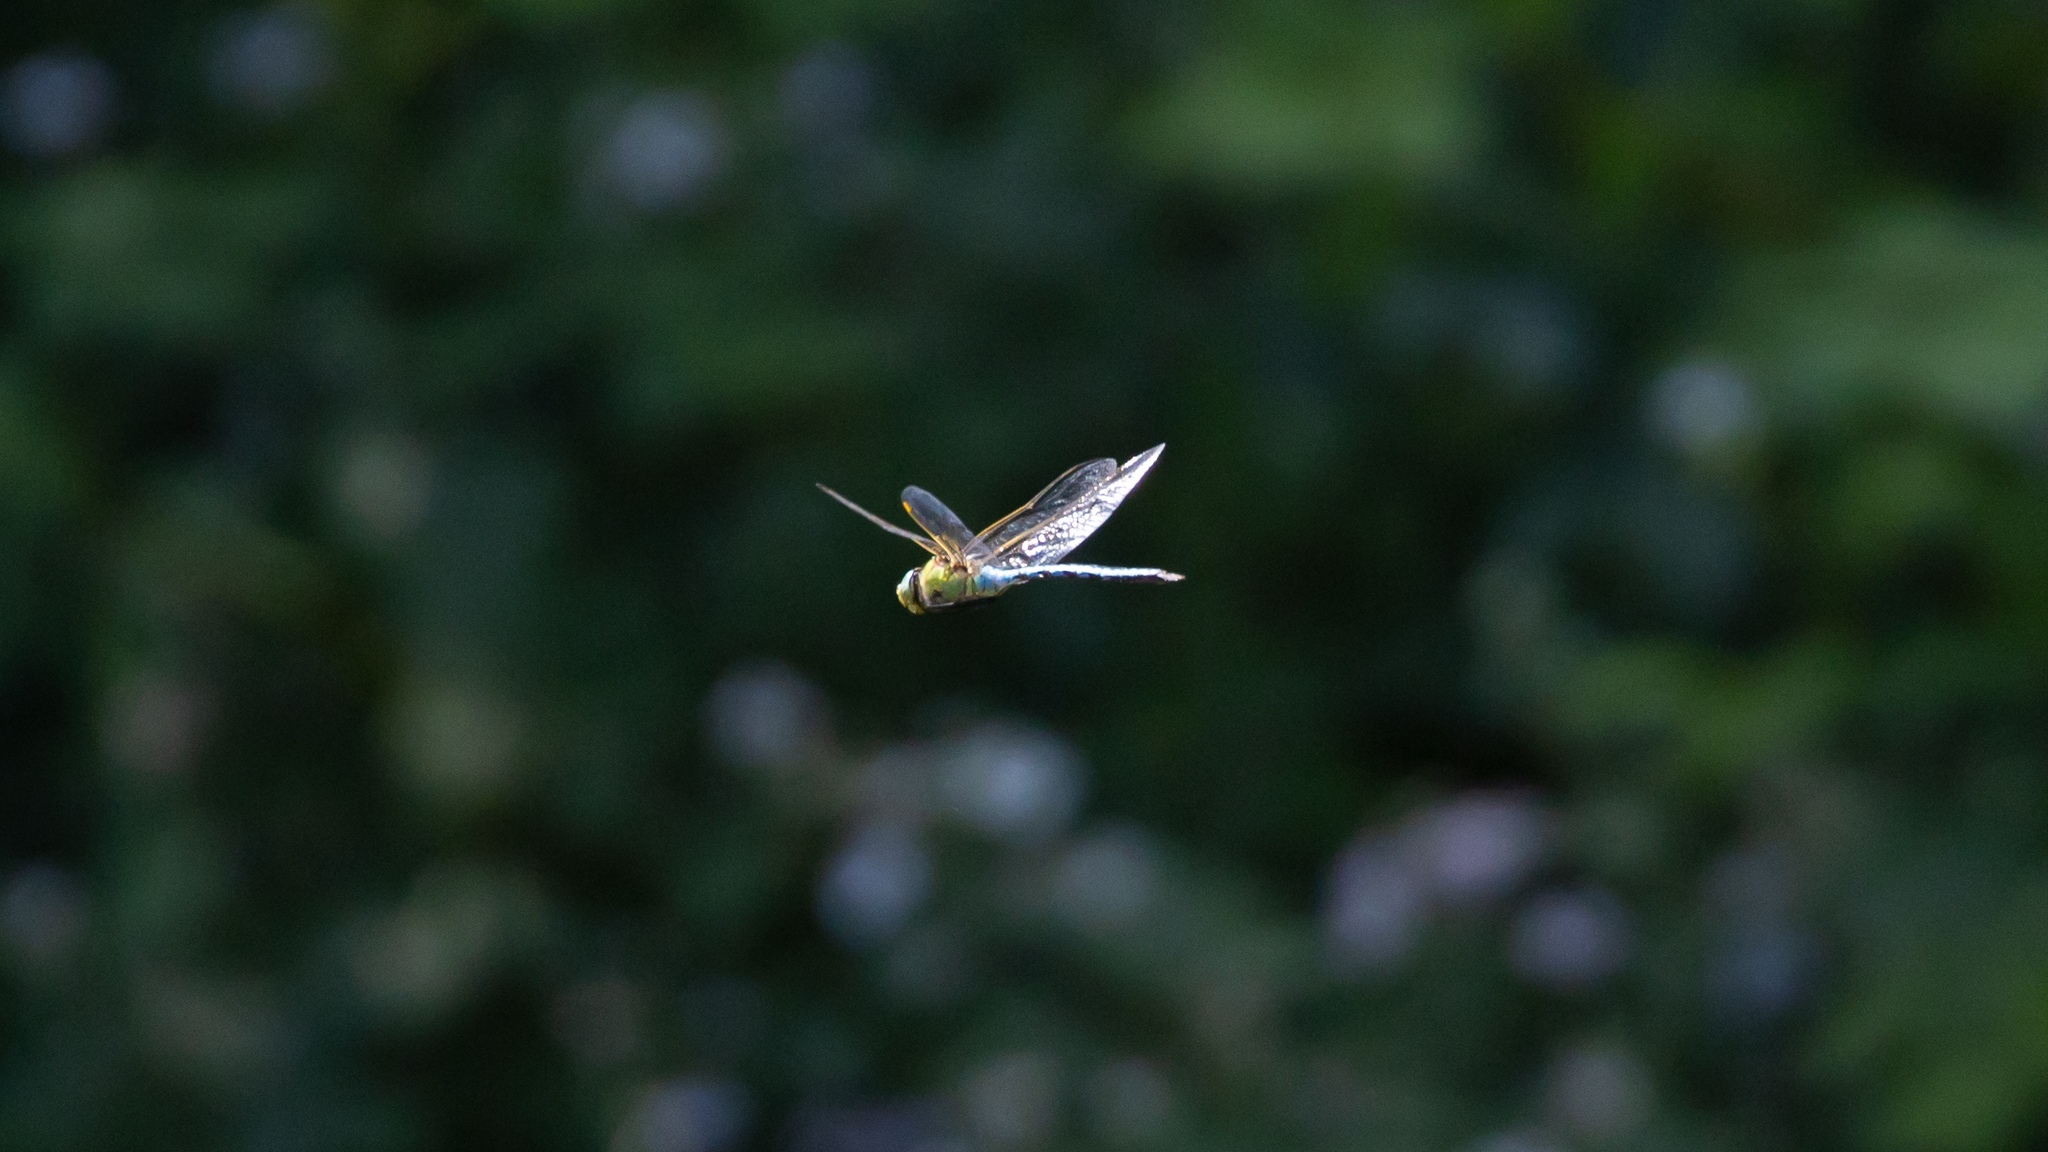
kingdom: Animalia
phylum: Arthropoda
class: Insecta
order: Odonata
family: Aeshnidae
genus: Anax
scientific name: Anax imperator
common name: Emperor dragonfly
